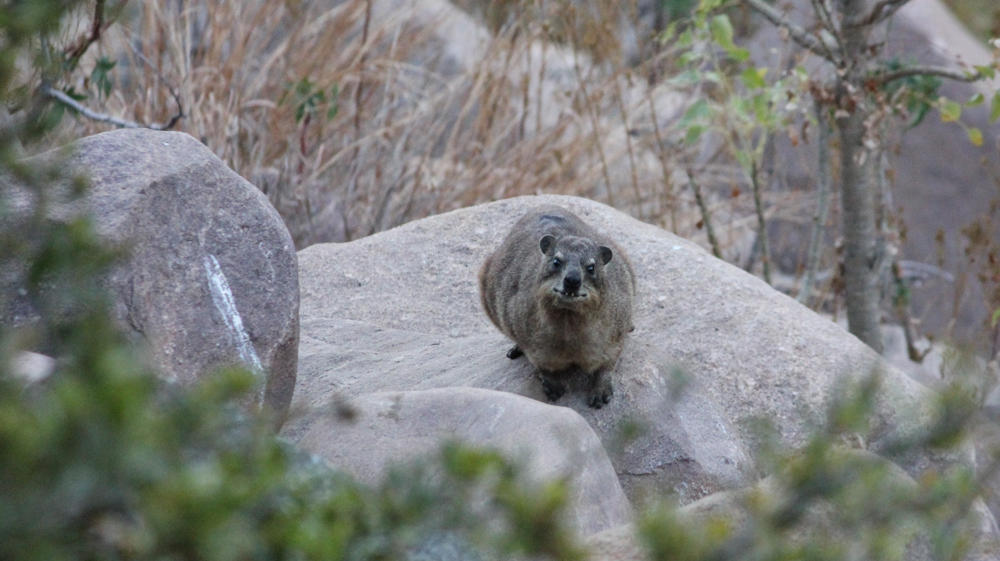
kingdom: Animalia
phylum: Chordata
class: Mammalia
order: Hyracoidea
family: Procaviidae
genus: Heterohyrax
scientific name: Heterohyrax brucei
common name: Bush hyrax
